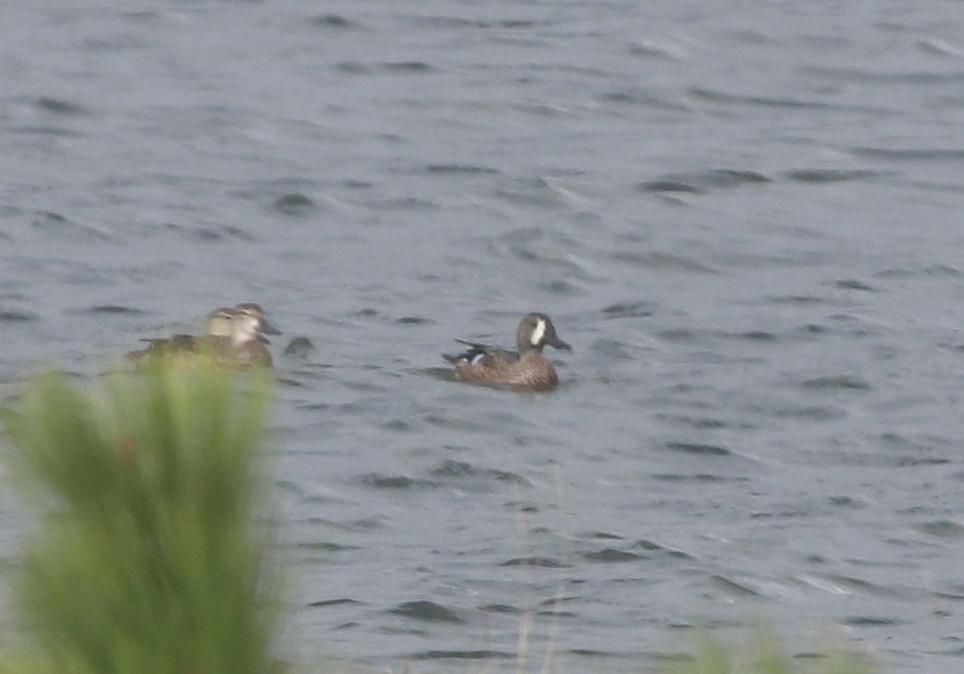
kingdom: Animalia
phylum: Chordata
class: Aves
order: Anseriformes
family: Anatidae
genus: Spatula
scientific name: Spatula discors
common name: Blue-winged teal
